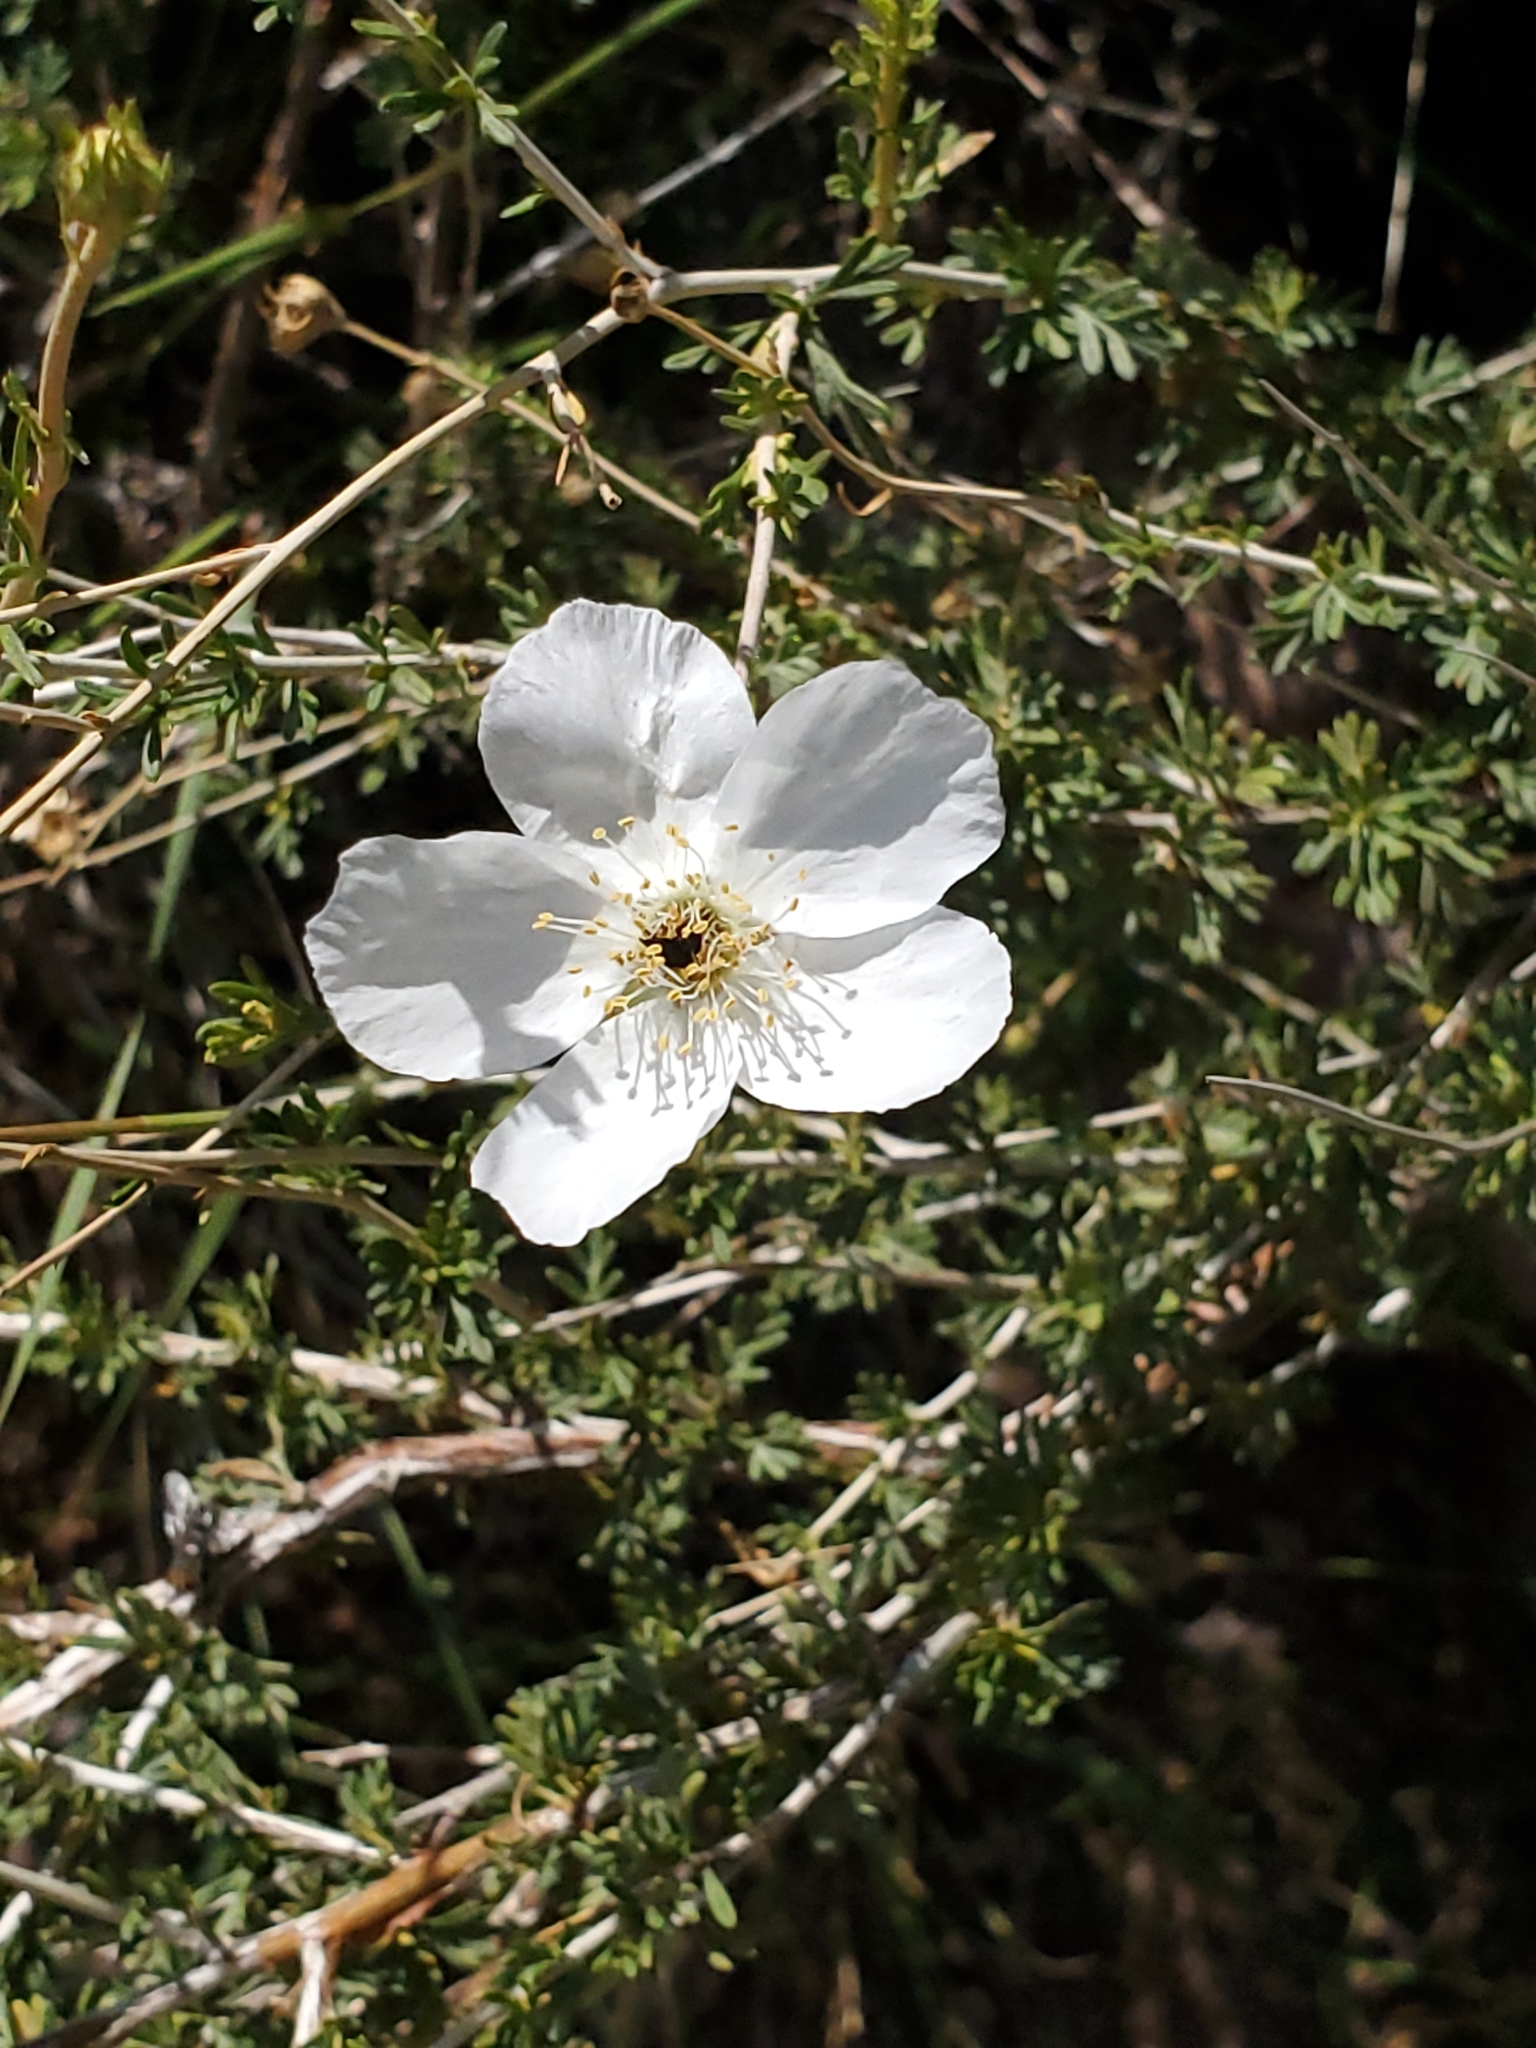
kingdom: Plantae
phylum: Tracheophyta
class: Magnoliopsida
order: Rosales
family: Rosaceae
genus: Fallugia
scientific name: Fallugia paradoxa
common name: Apache-plume
